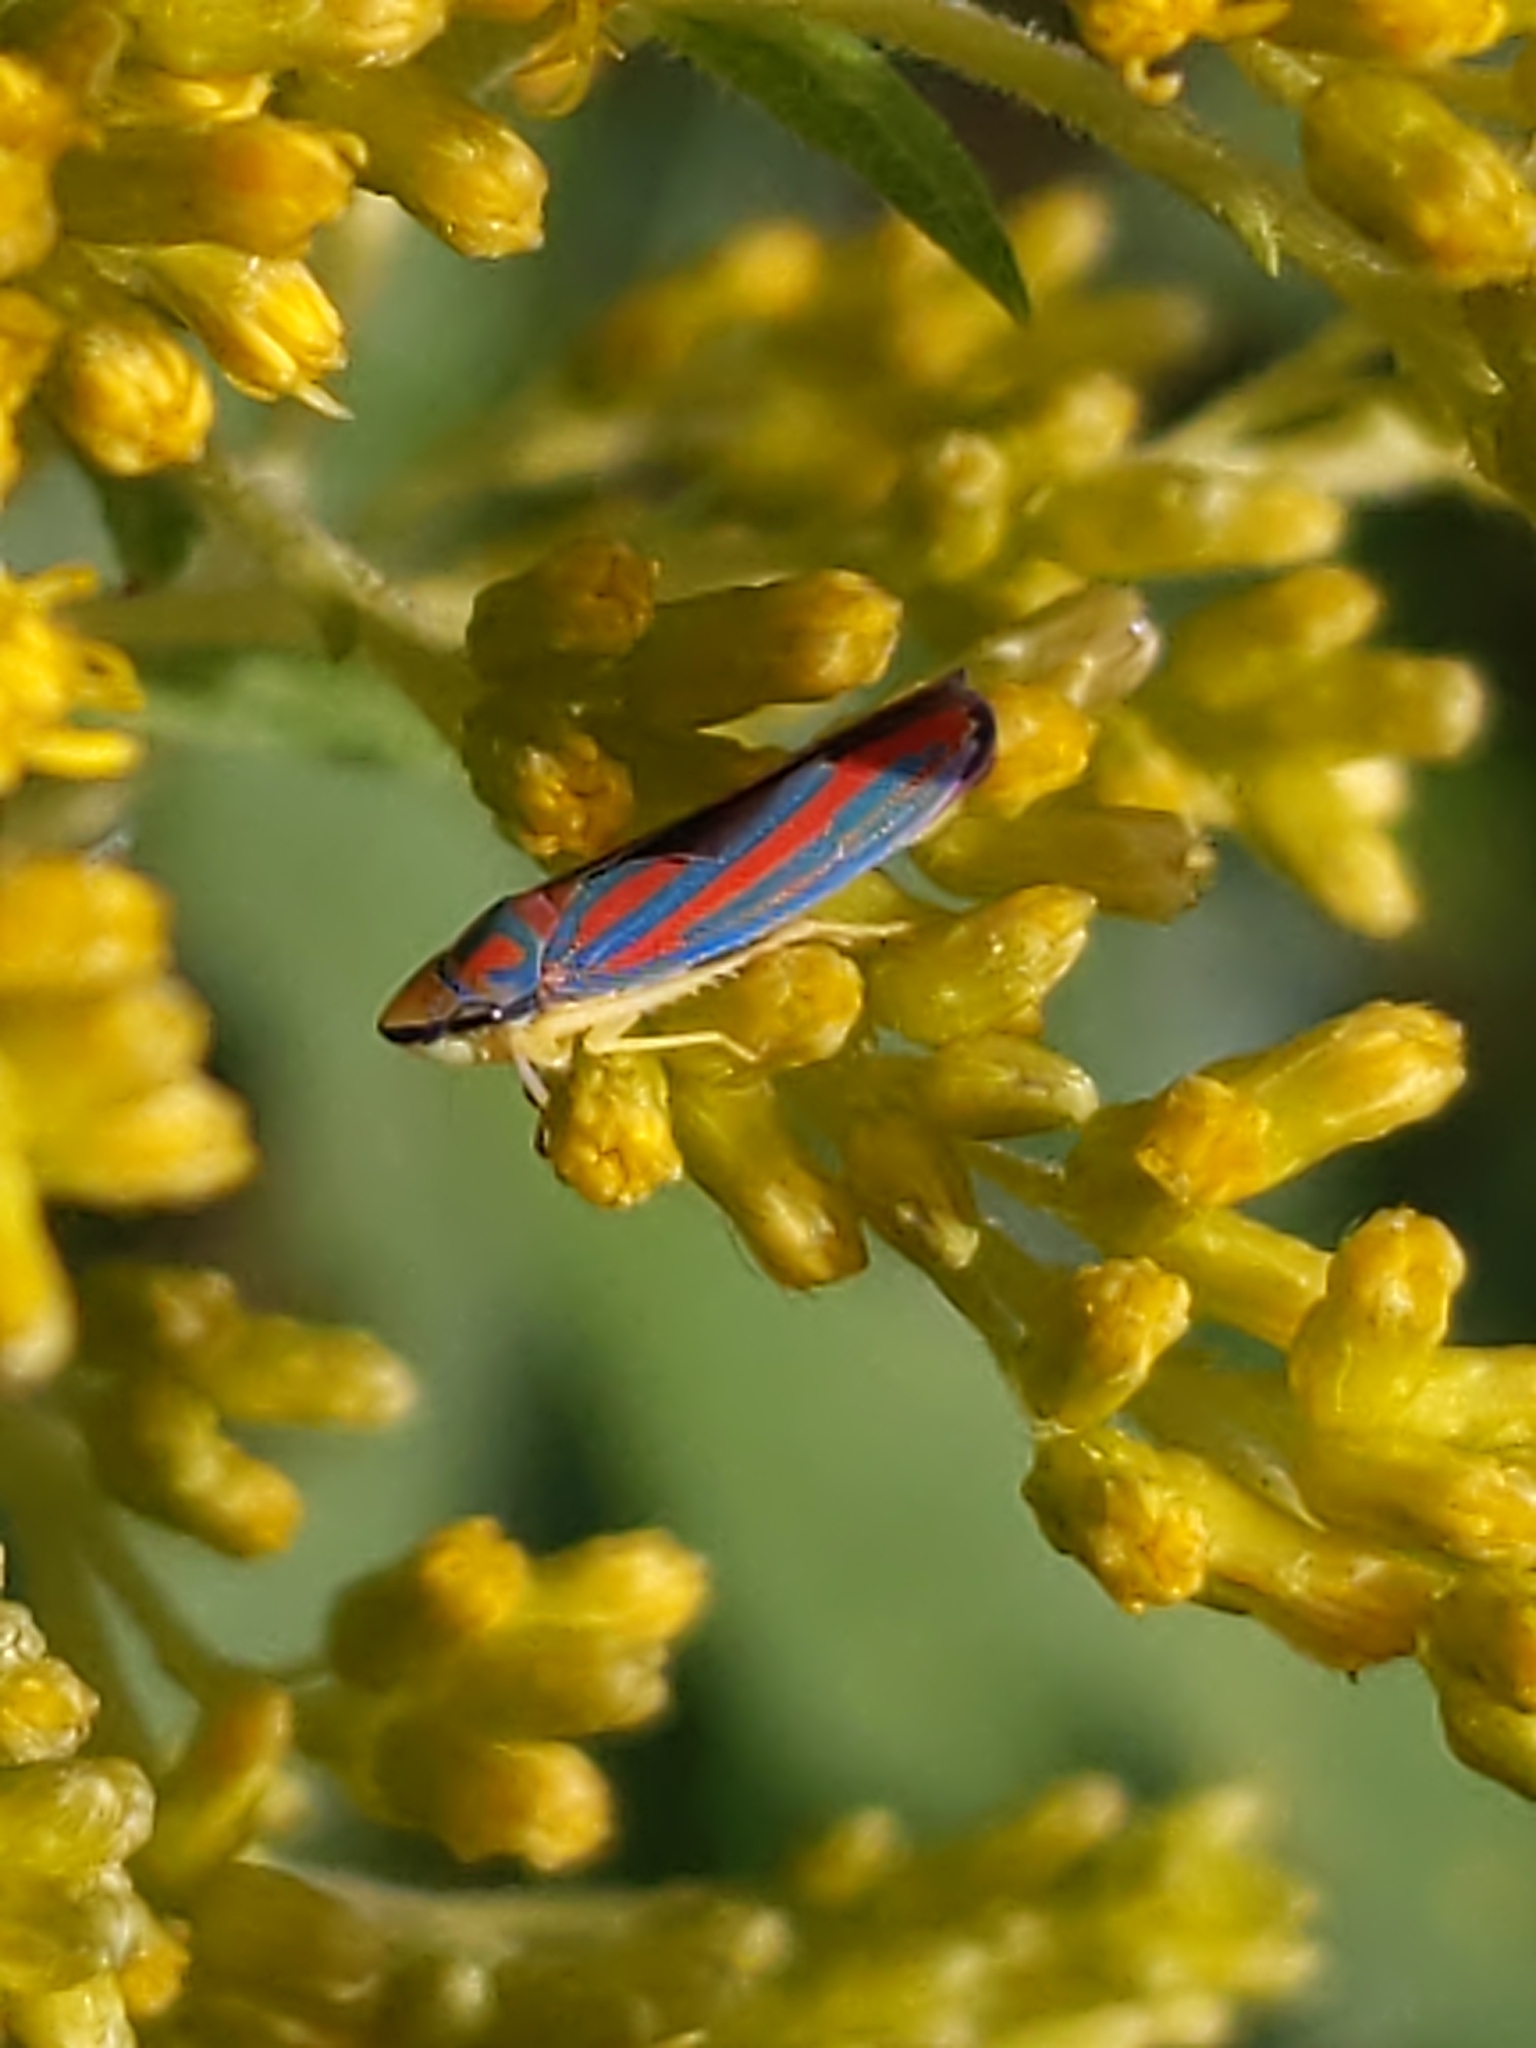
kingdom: Animalia
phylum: Arthropoda
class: Insecta
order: Hemiptera
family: Cicadellidae
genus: Graphocephala
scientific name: Graphocephala coccinea
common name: Candy-striped leafhopper
